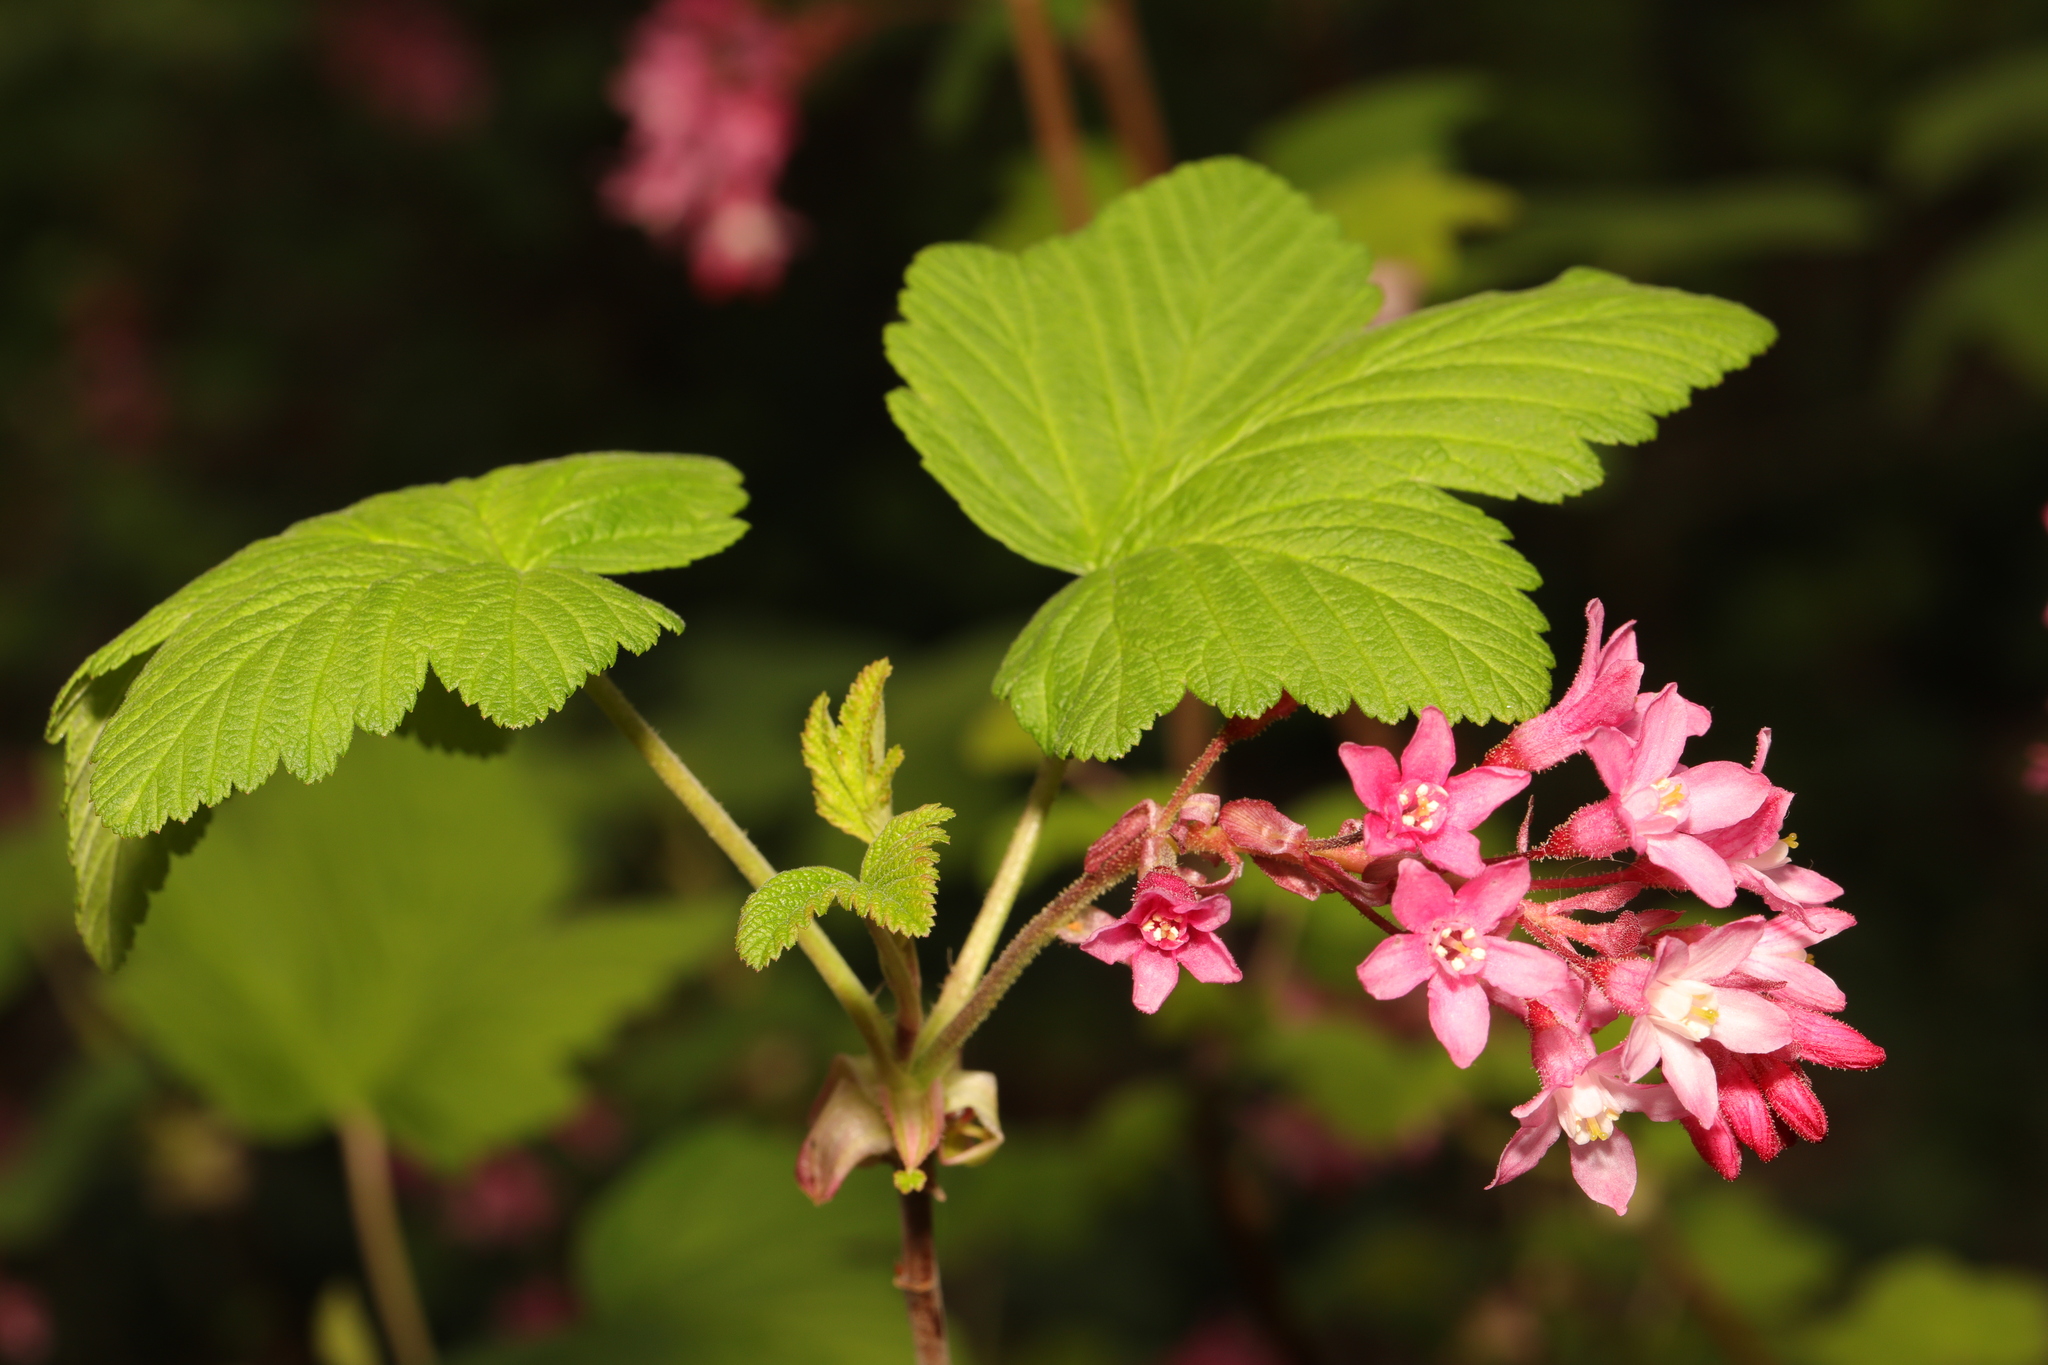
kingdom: Plantae
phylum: Tracheophyta
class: Magnoliopsida
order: Saxifragales
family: Grossulariaceae
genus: Ribes
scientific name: Ribes sanguineum
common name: Flowering currant
